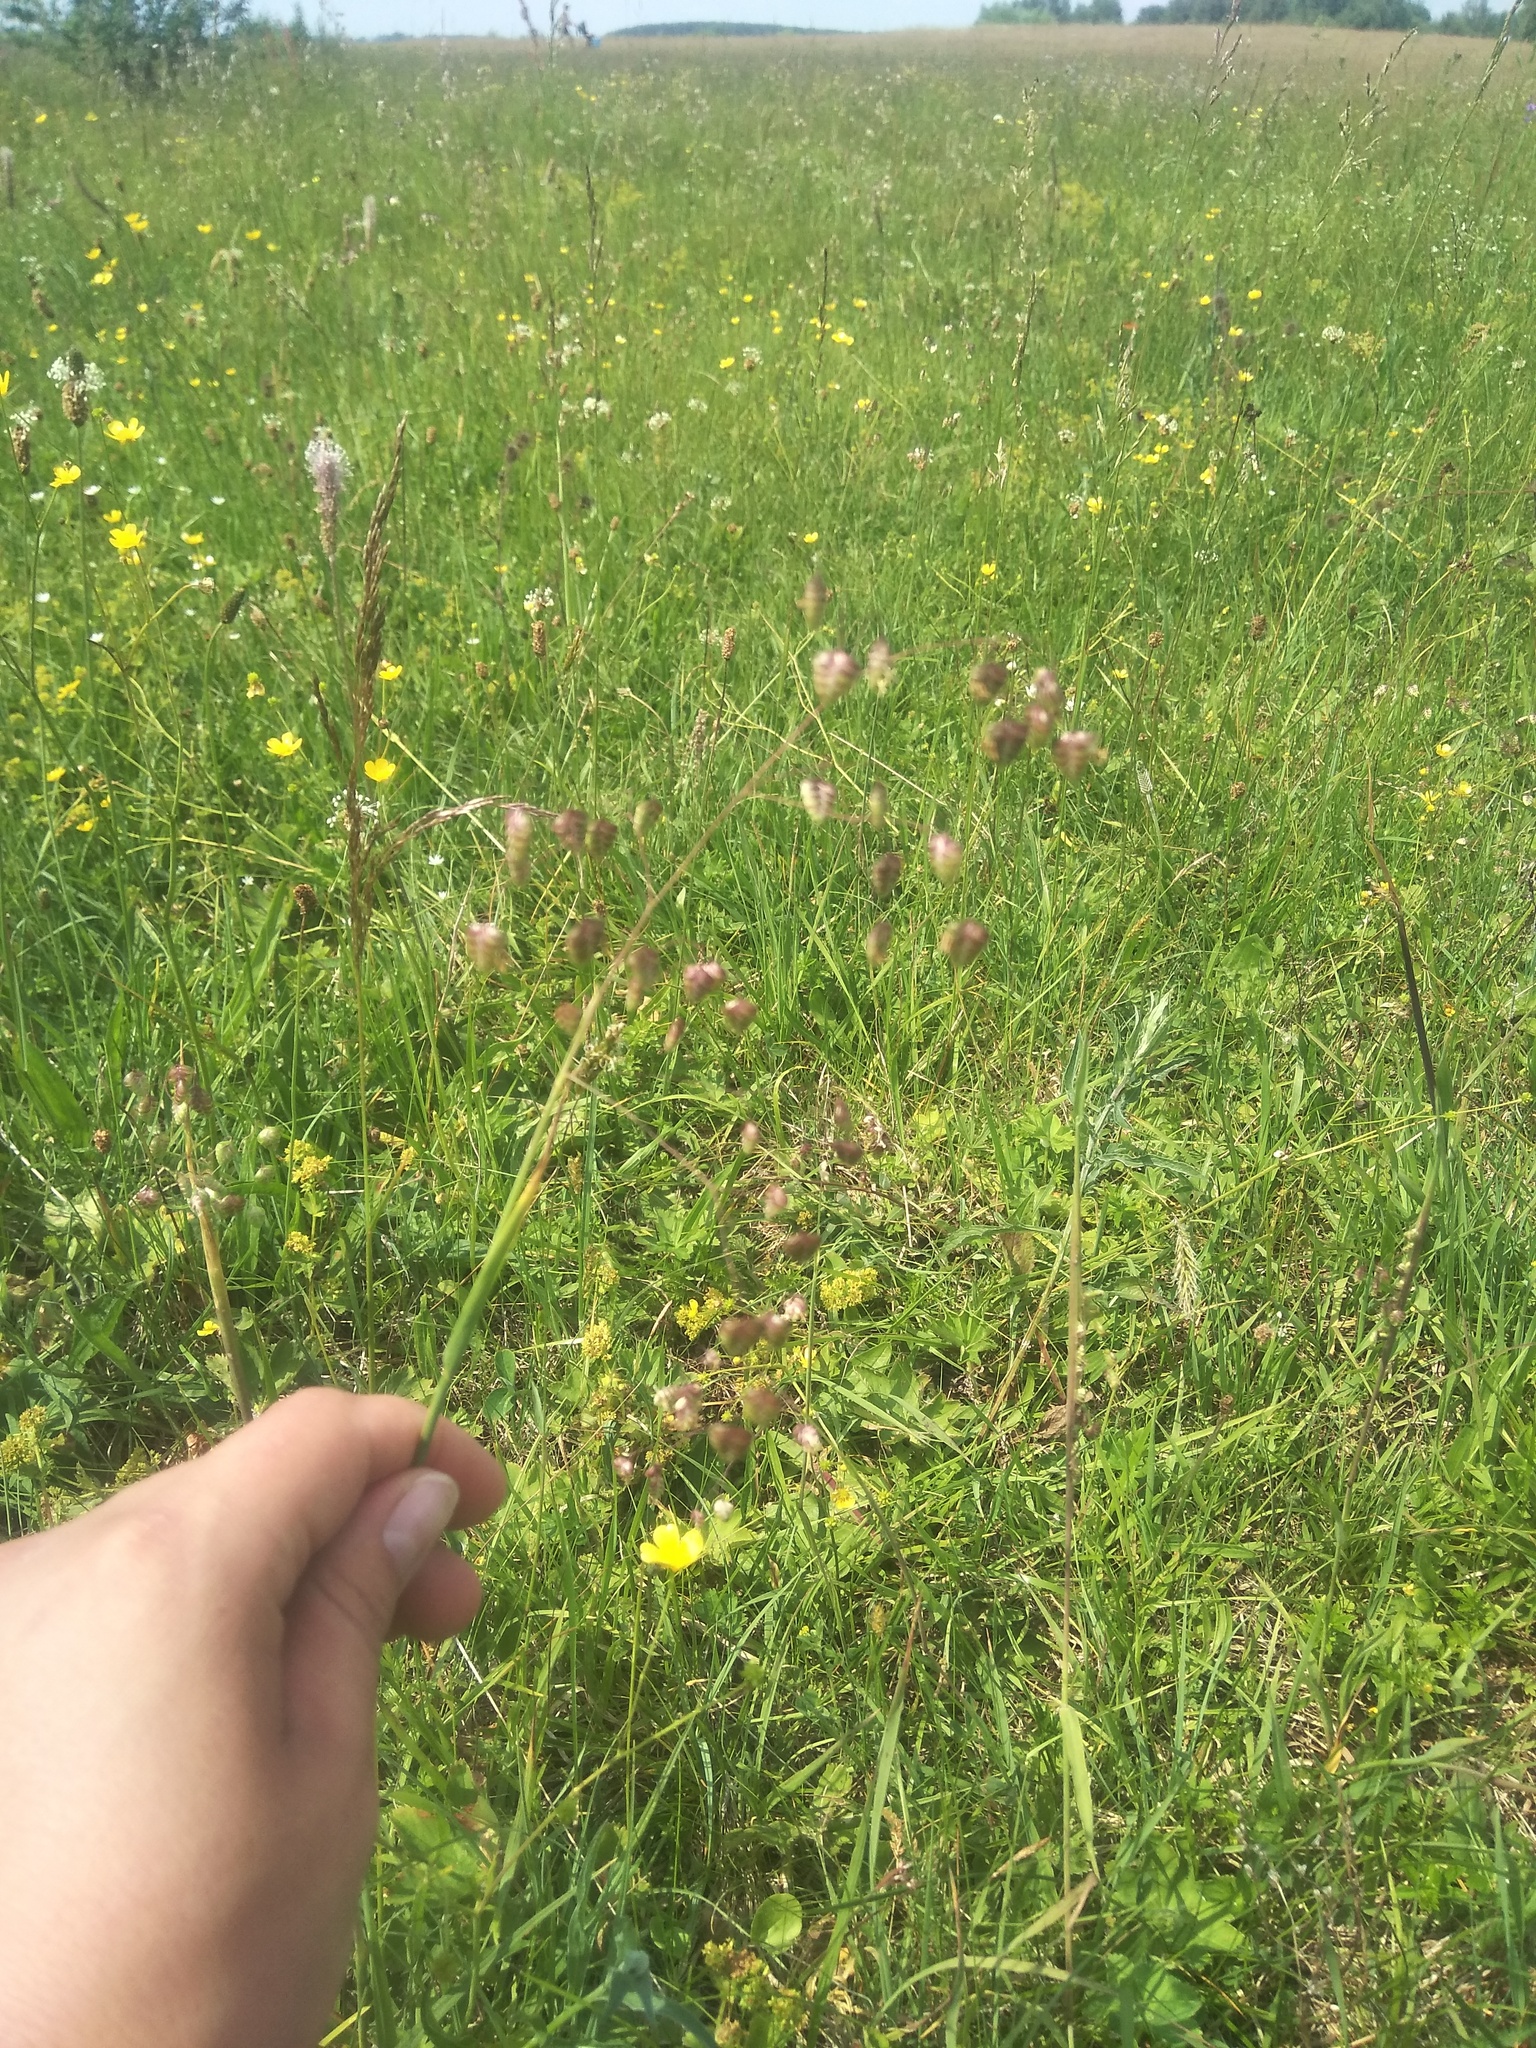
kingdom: Plantae
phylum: Tracheophyta
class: Liliopsida
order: Poales
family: Poaceae
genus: Briza
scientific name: Briza media
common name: Quaking grass
